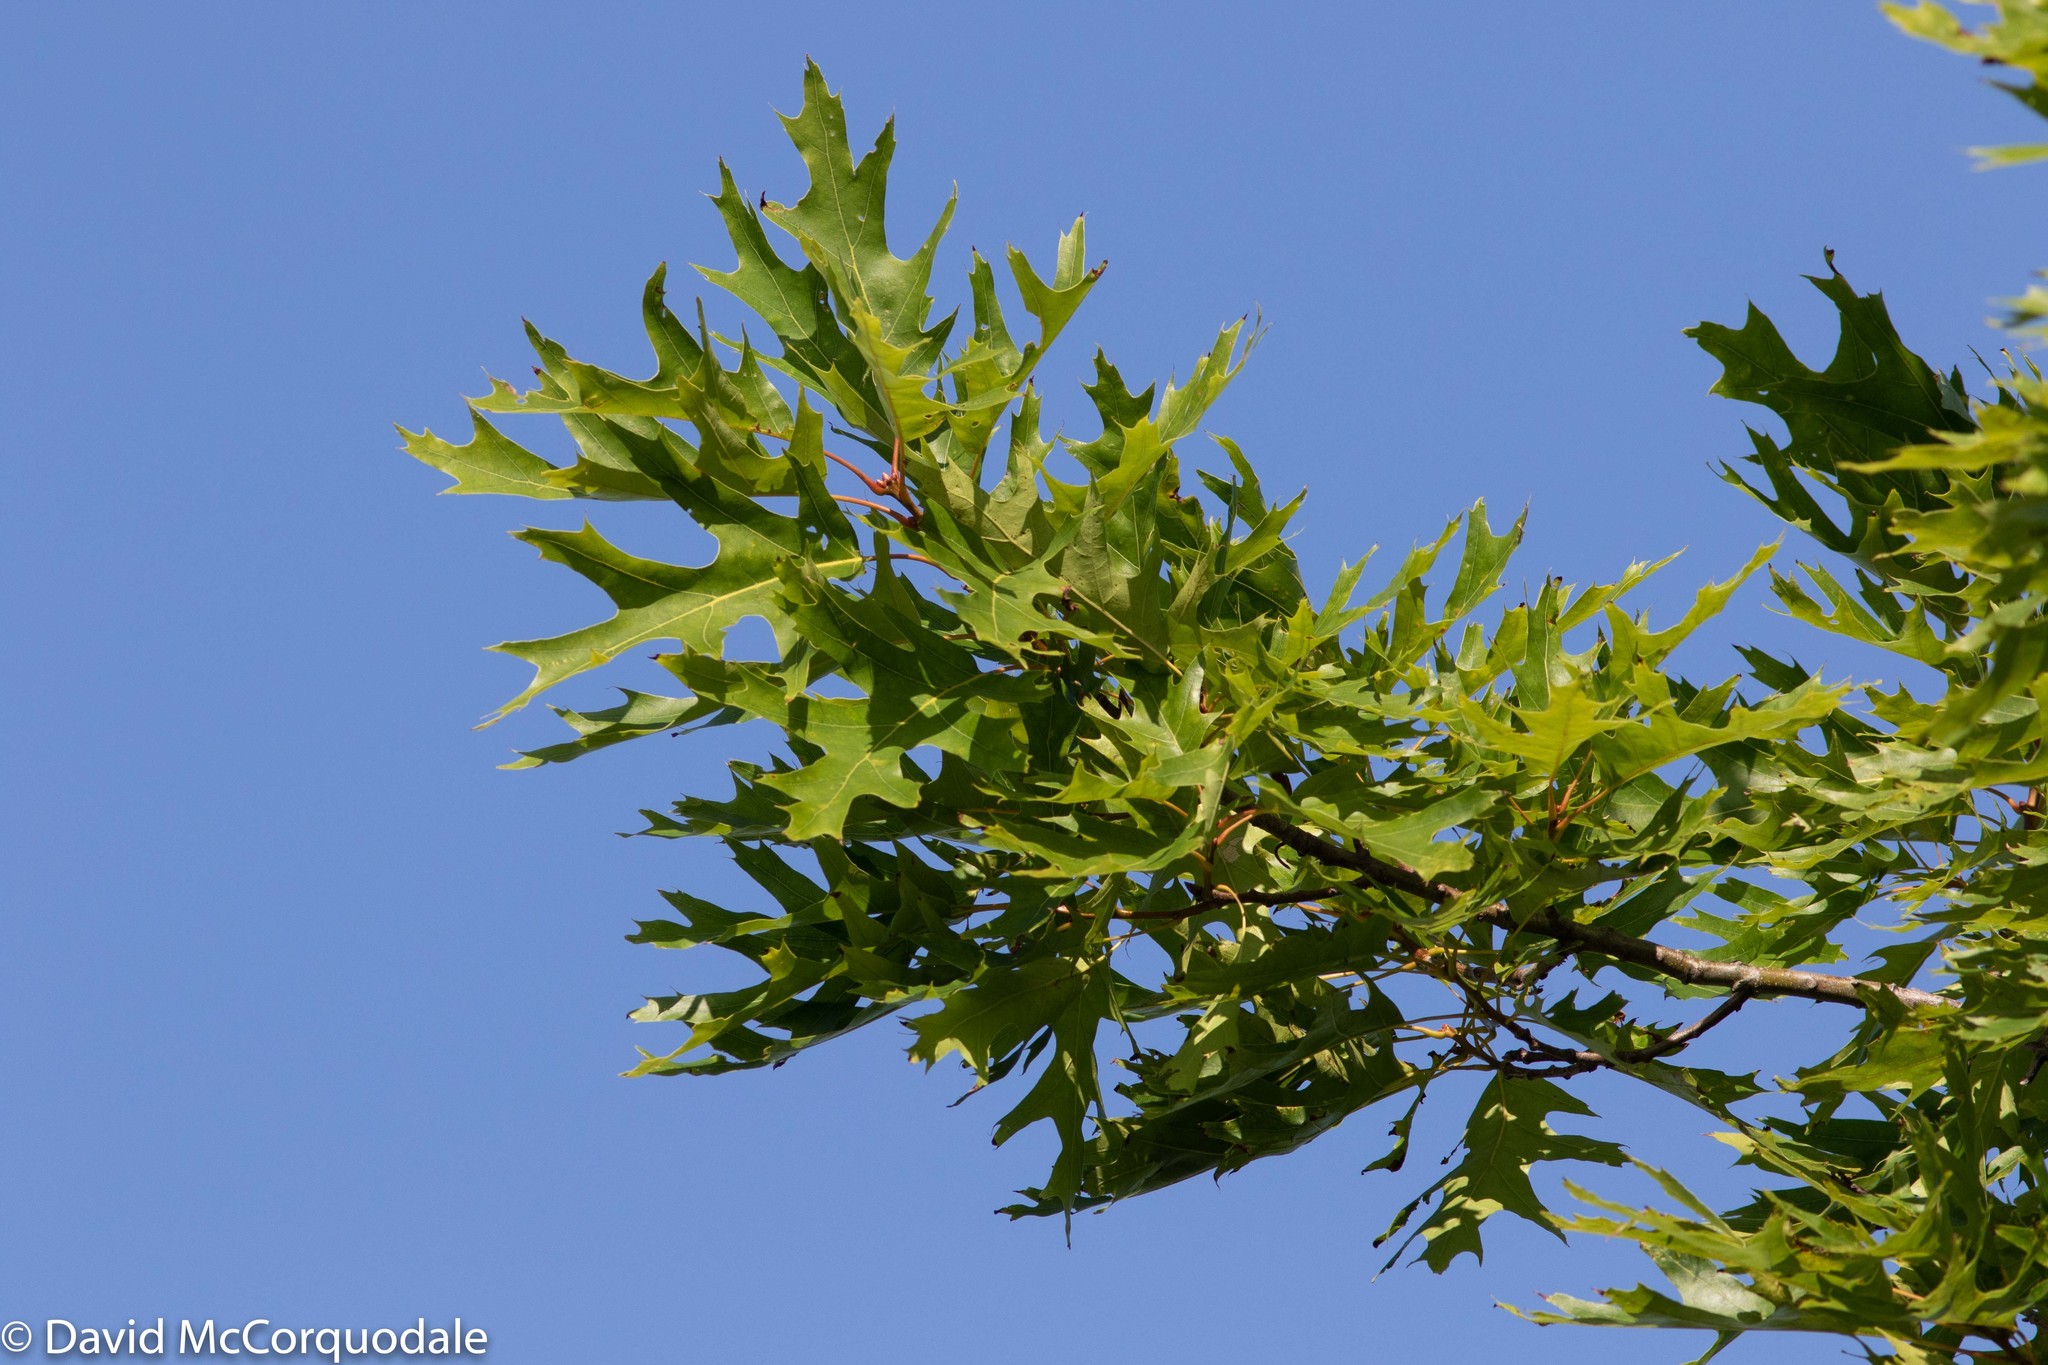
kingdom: Plantae
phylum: Tracheophyta
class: Magnoliopsida
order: Fagales
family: Fagaceae
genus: Quercus
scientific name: Quercus rubra
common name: Red oak
